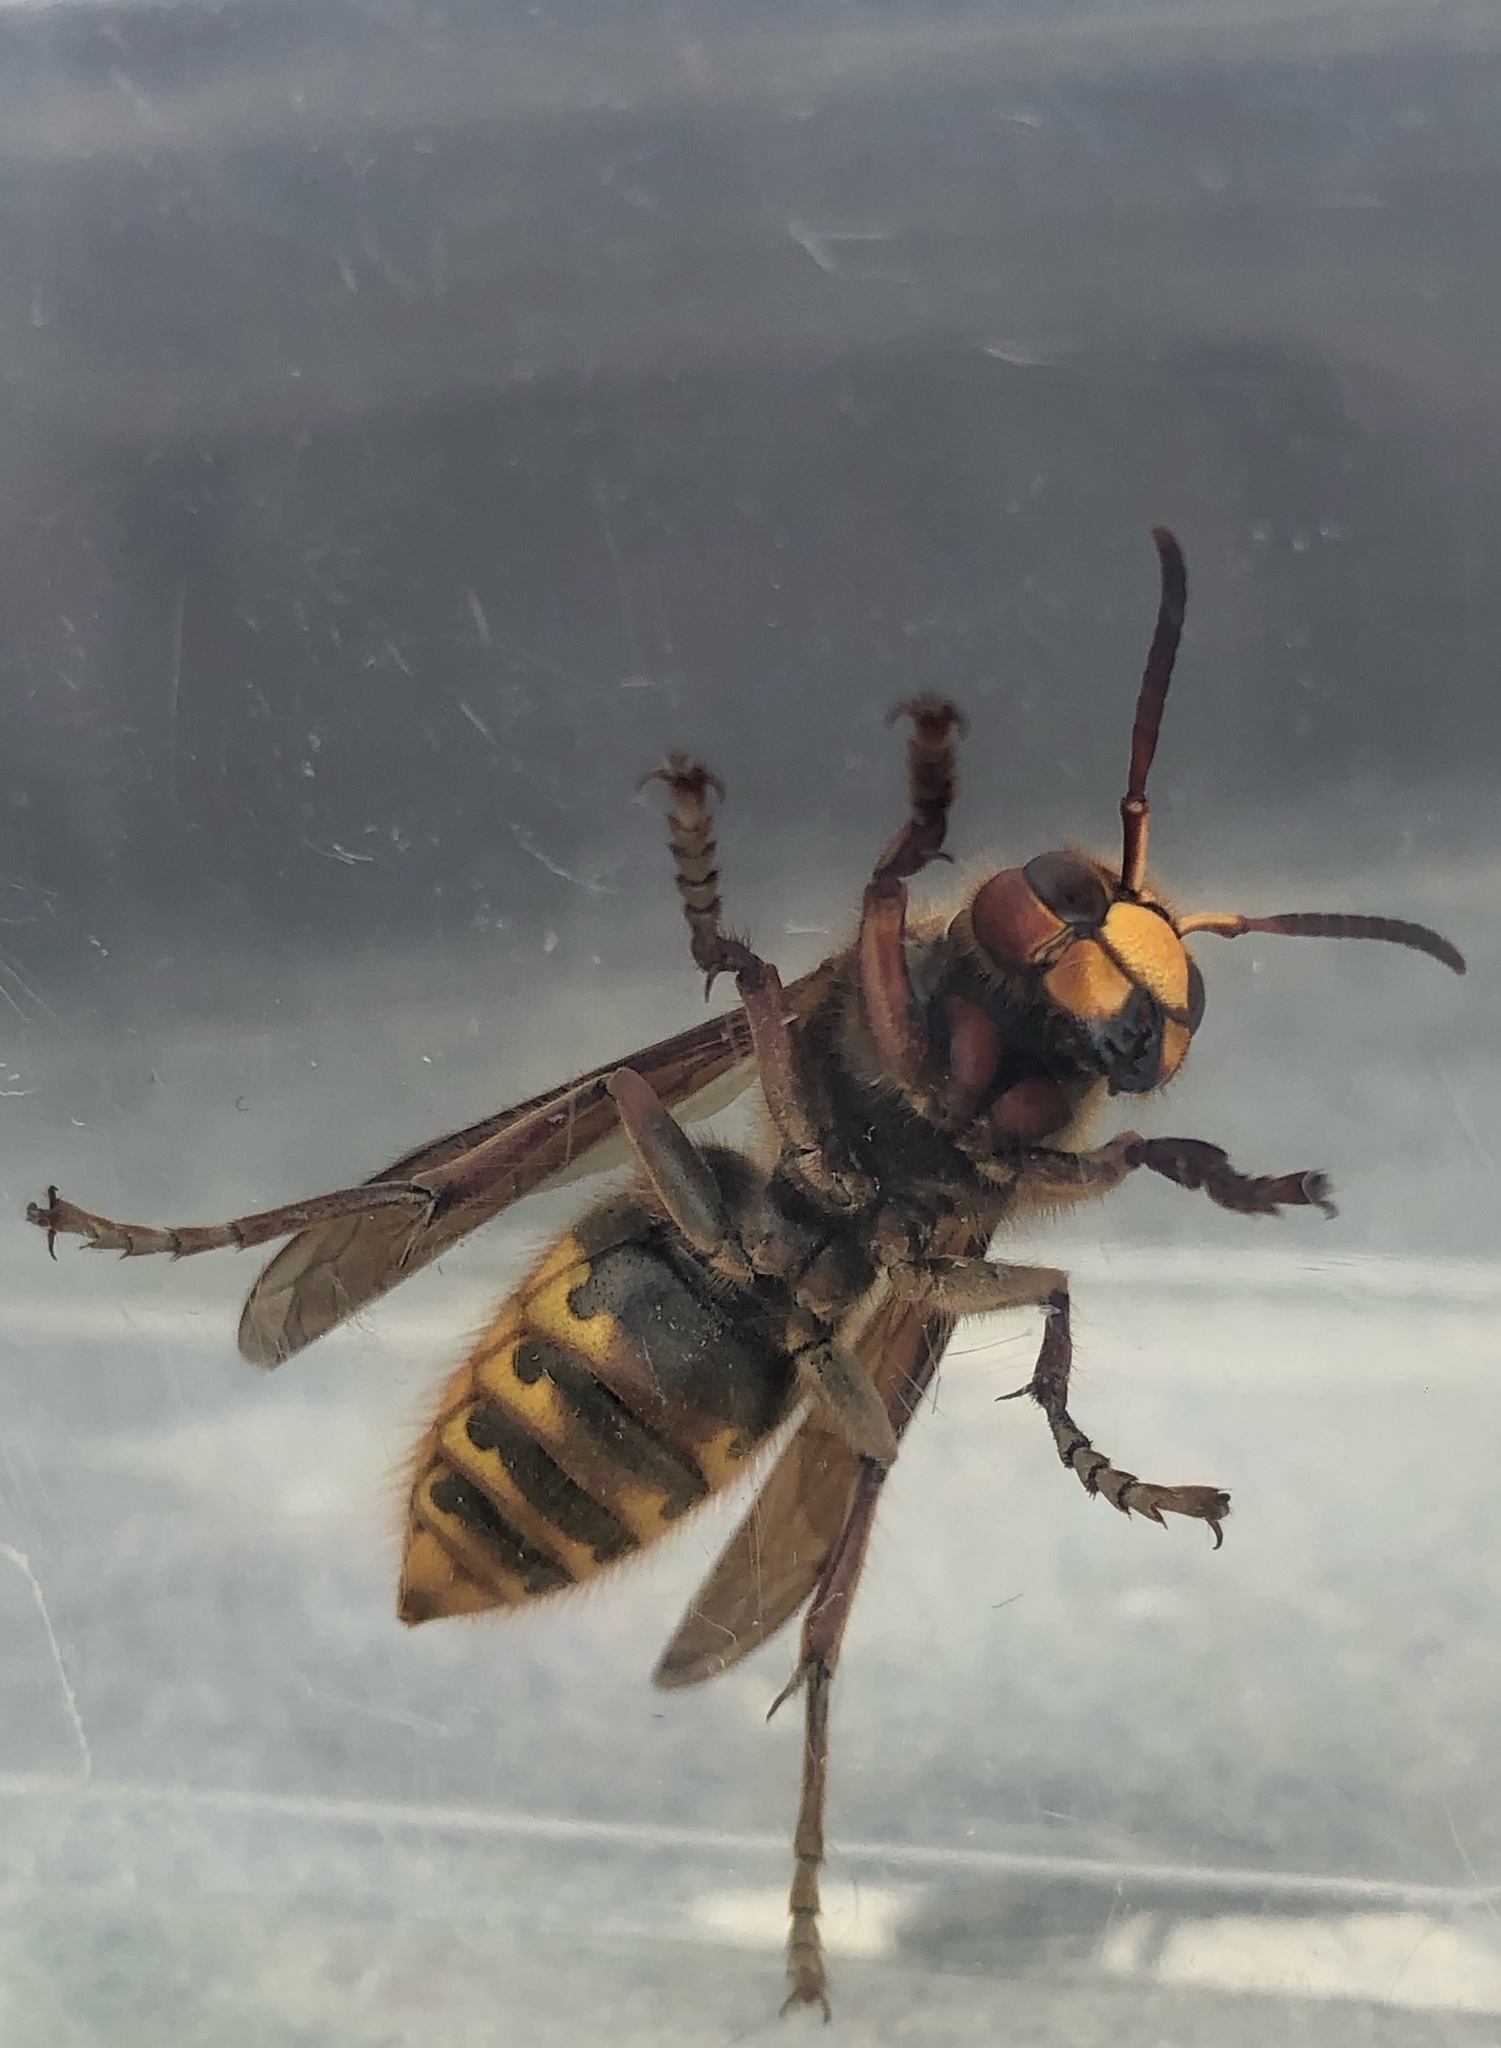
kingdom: Animalia
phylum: Arthropoda
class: Insecta
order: Hymenoptera
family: Vespidae
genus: Vespa
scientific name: Vespa crabro
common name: Hornet
